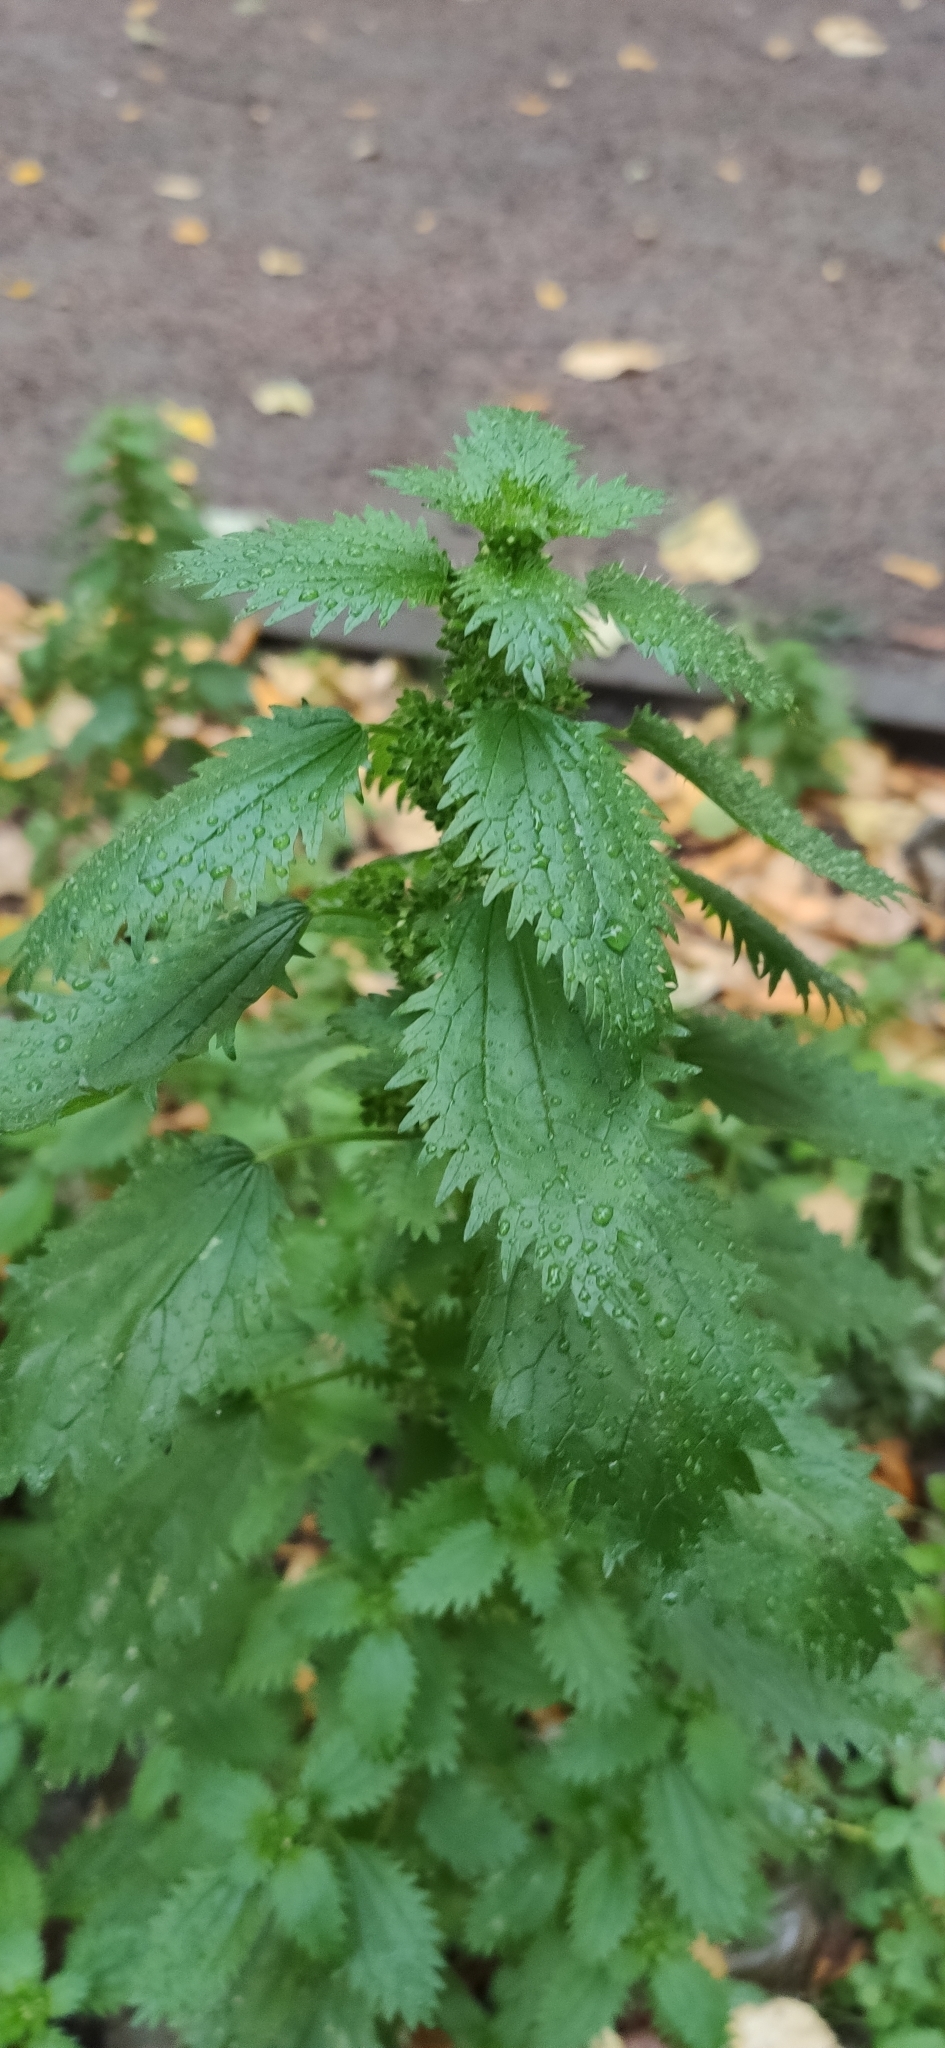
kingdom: Plantae
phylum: Tracheophyta
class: Magnoliopsida
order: Rosales
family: Urticaceae
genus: Urtica
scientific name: Urtica urens
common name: Dwarf nettle
